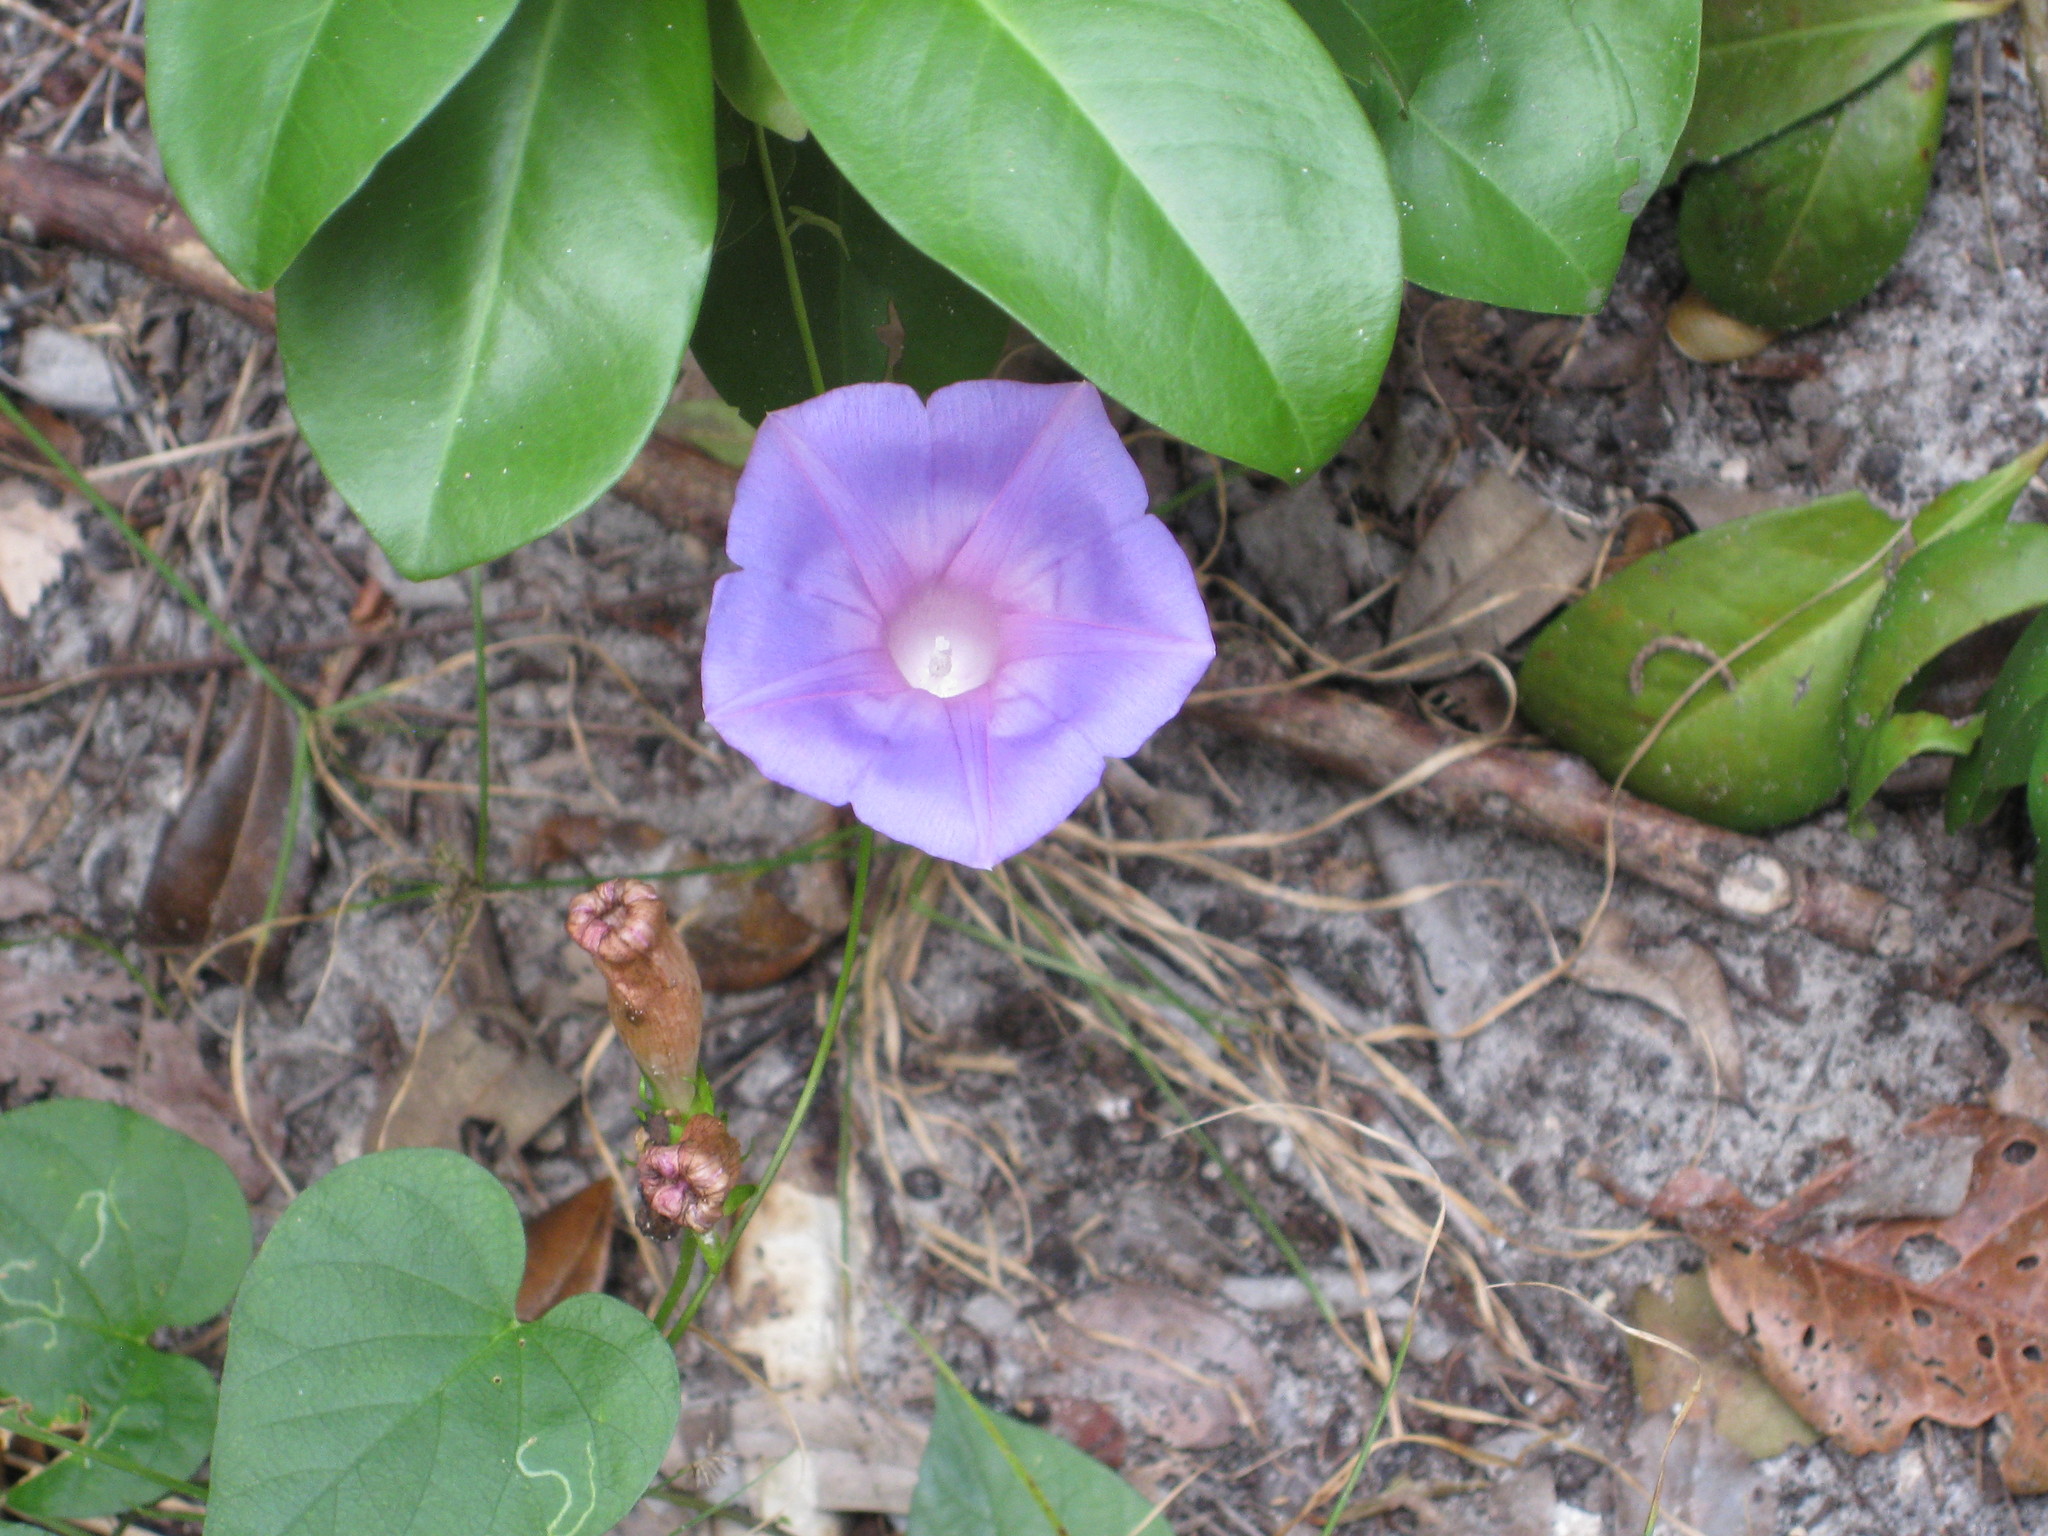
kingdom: Plantae
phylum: Tracheophyta
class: Magnoliopsida
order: Solanales
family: Convolvulaceae
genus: Ipomoea
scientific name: Ipomoea indica
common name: Blue dawnflower
